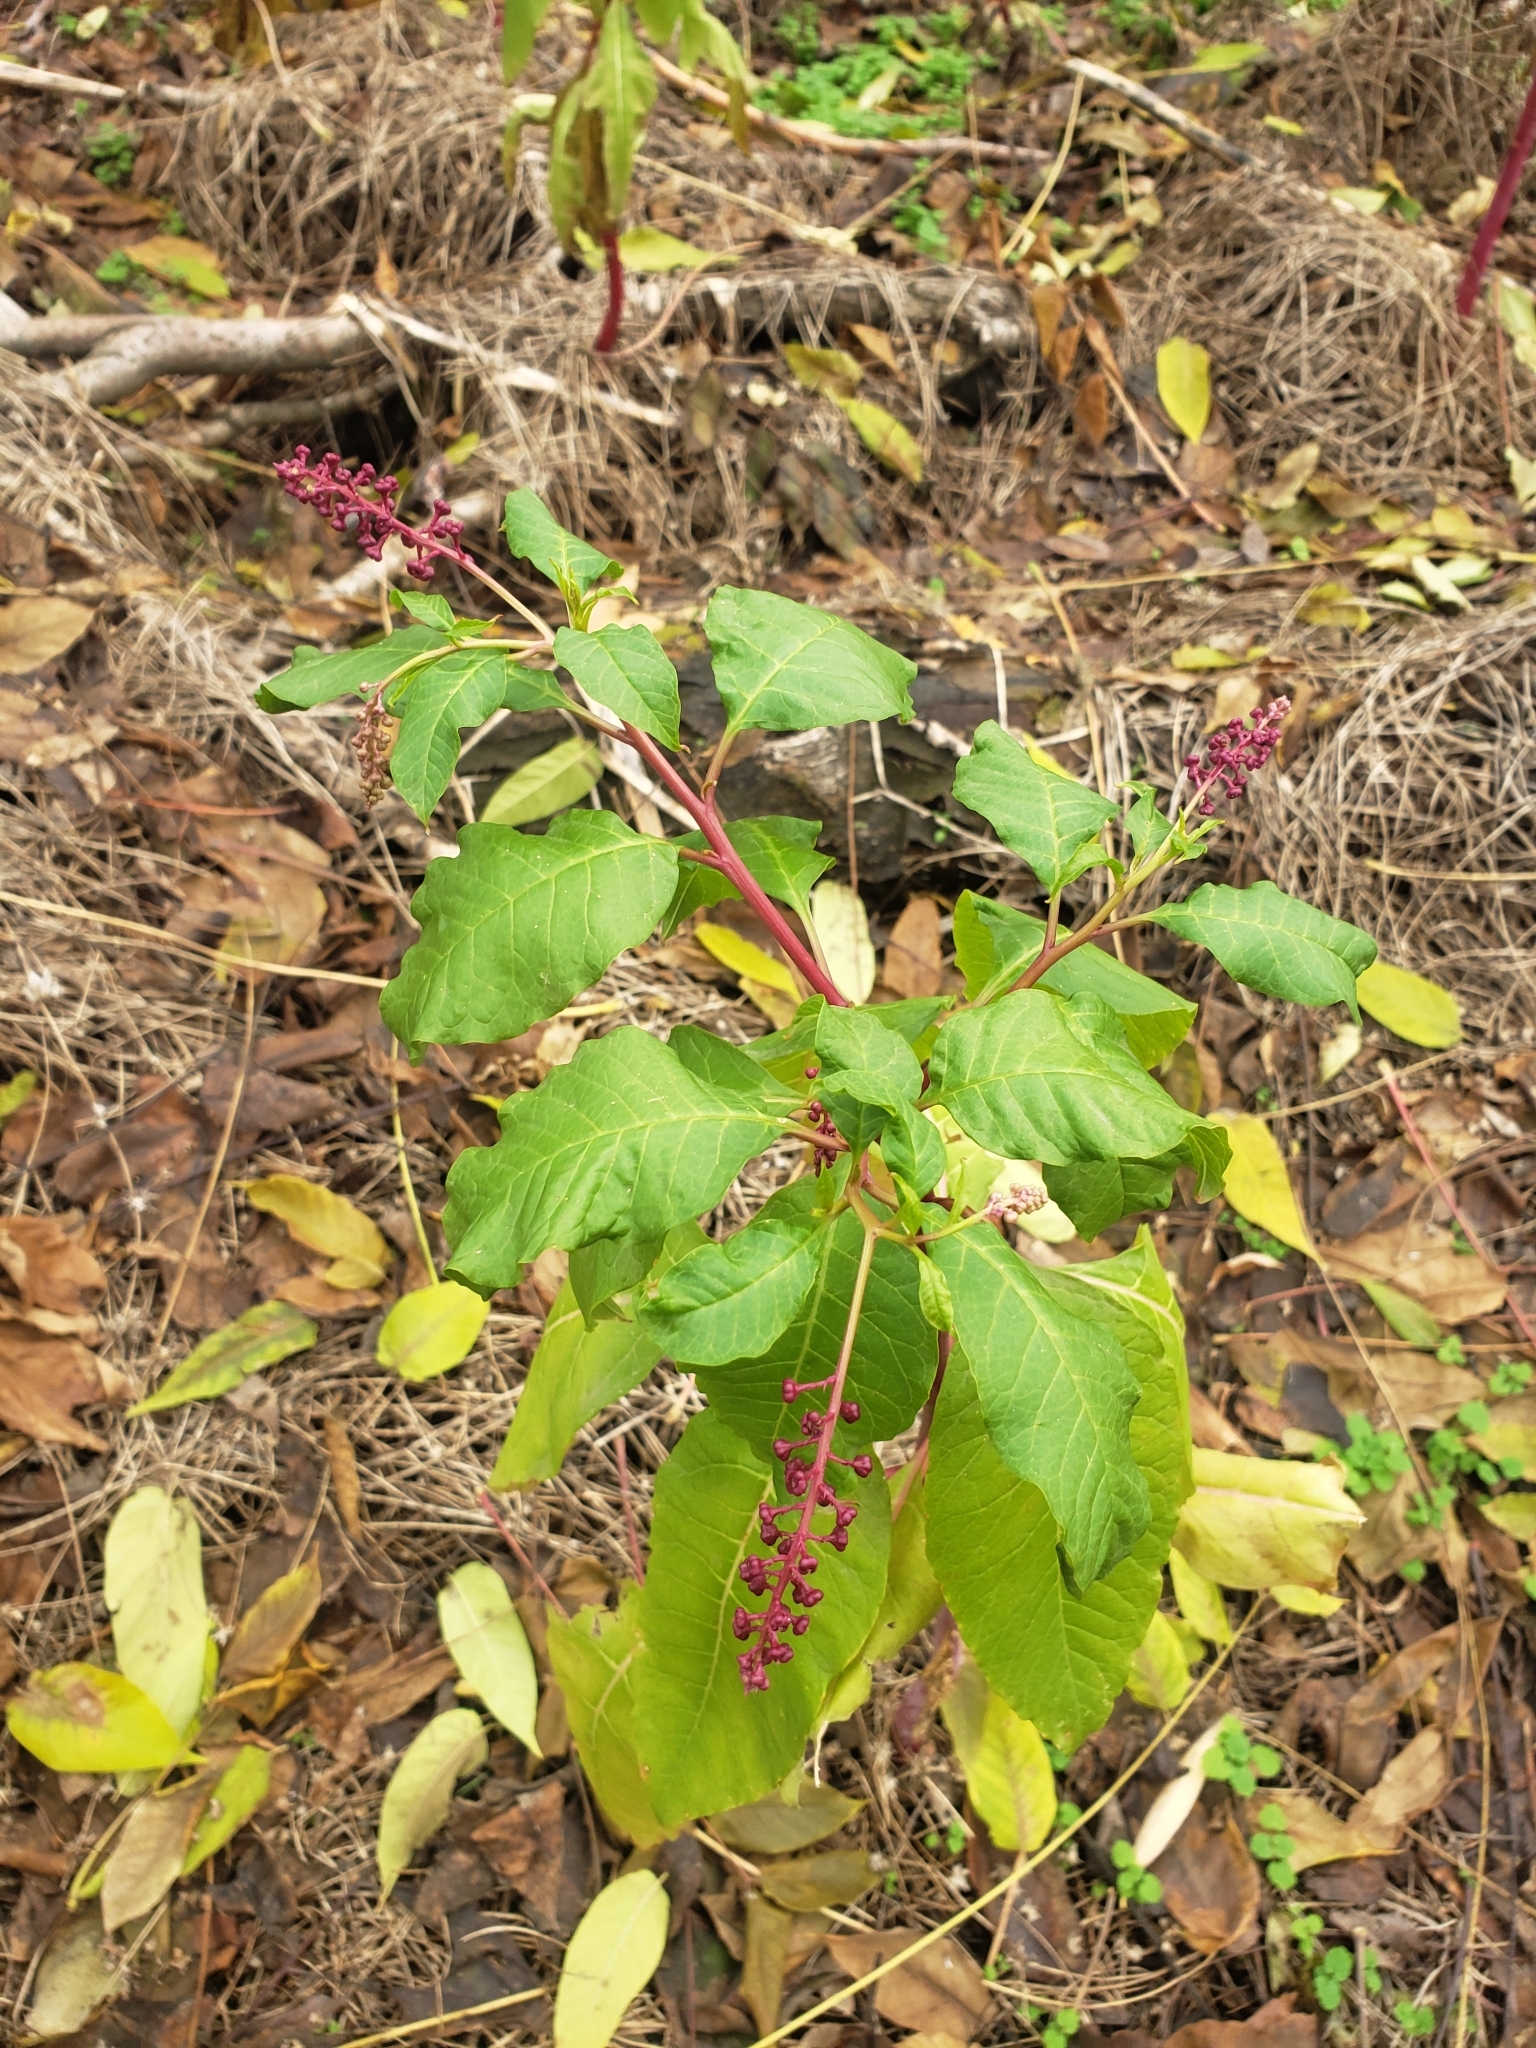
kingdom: Plantae
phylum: Tracheophyta
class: Magnoliopsida
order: Caryophyllales
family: Phytolaccaceae
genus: Phytolacca
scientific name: Phytolacca americana
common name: American pokeweed
